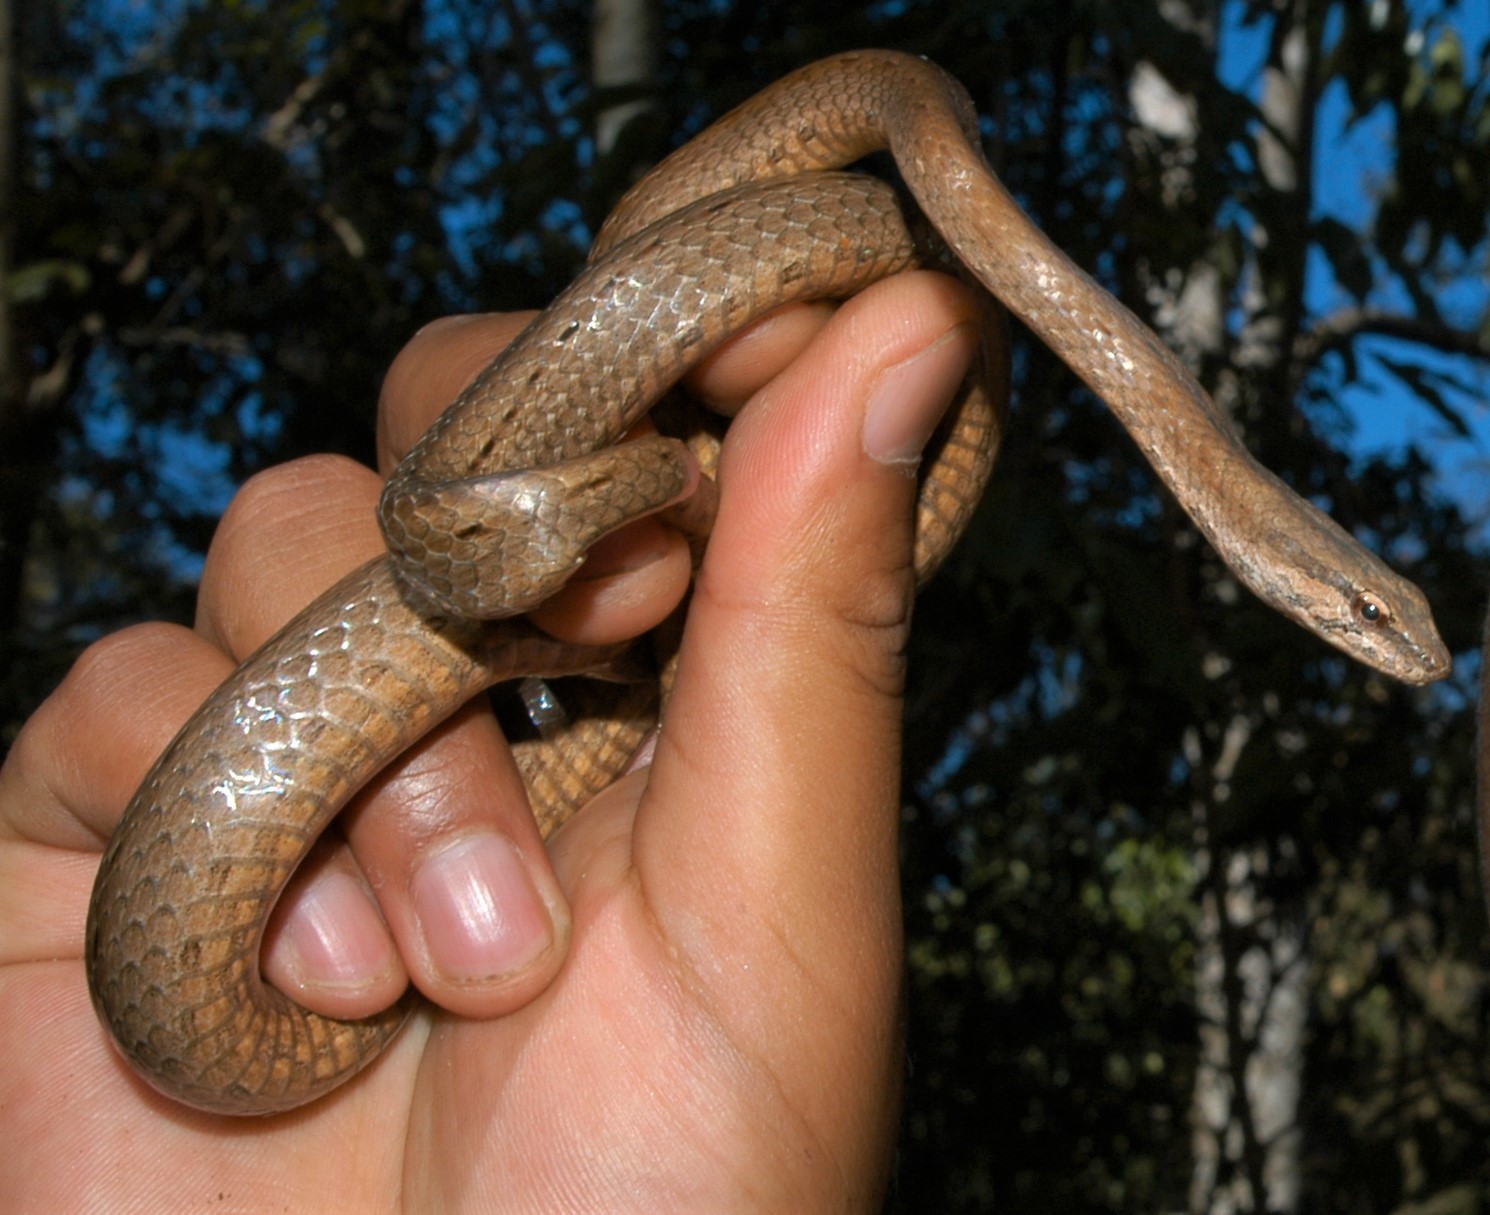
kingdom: Animalia
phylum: Chordata
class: Squamata
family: Psammophiidae
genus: Mimophis
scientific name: Mimophis occultus
